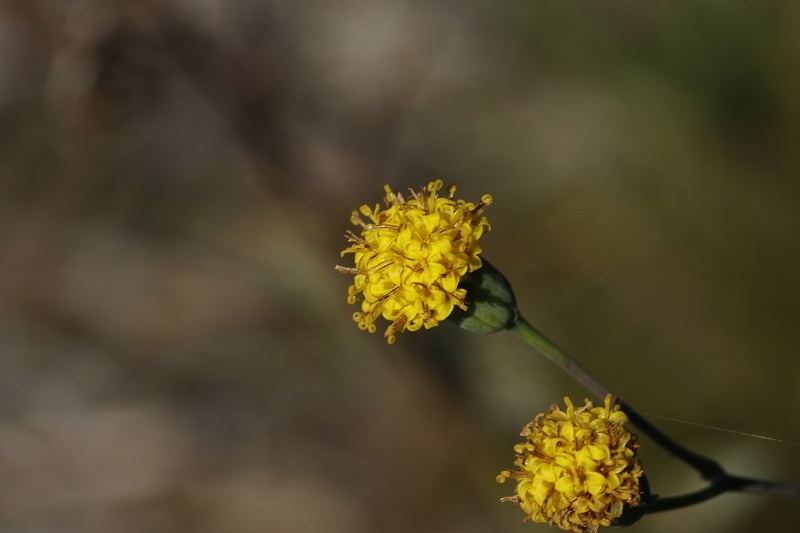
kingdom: Plantae
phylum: Tracheophyta
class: Magnoliopsida
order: Asterales
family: Asteraceae
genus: Senecio
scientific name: Senecio othonniflorus
